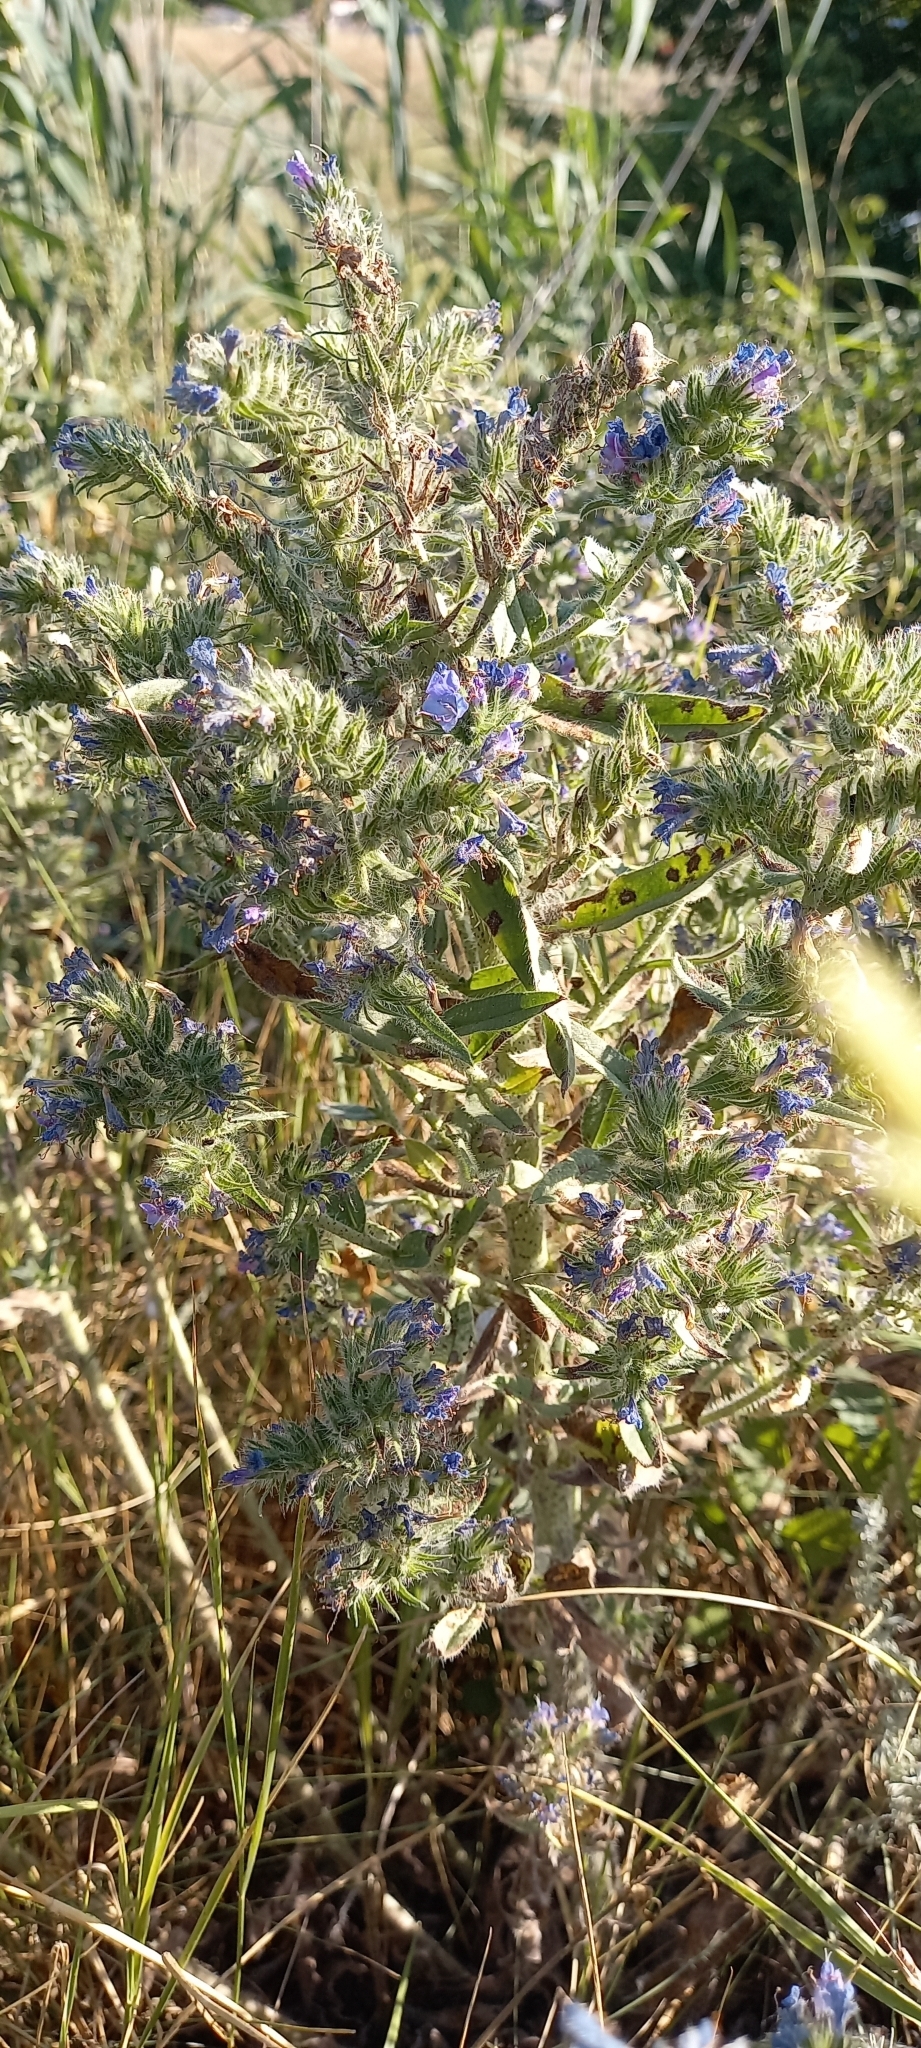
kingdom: Plantae
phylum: Tracheophyta
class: Magnoliopsida
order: Boraginales
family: Boraginaceae
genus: Echium
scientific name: Echium vulgare
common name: Common viper's bugloss
